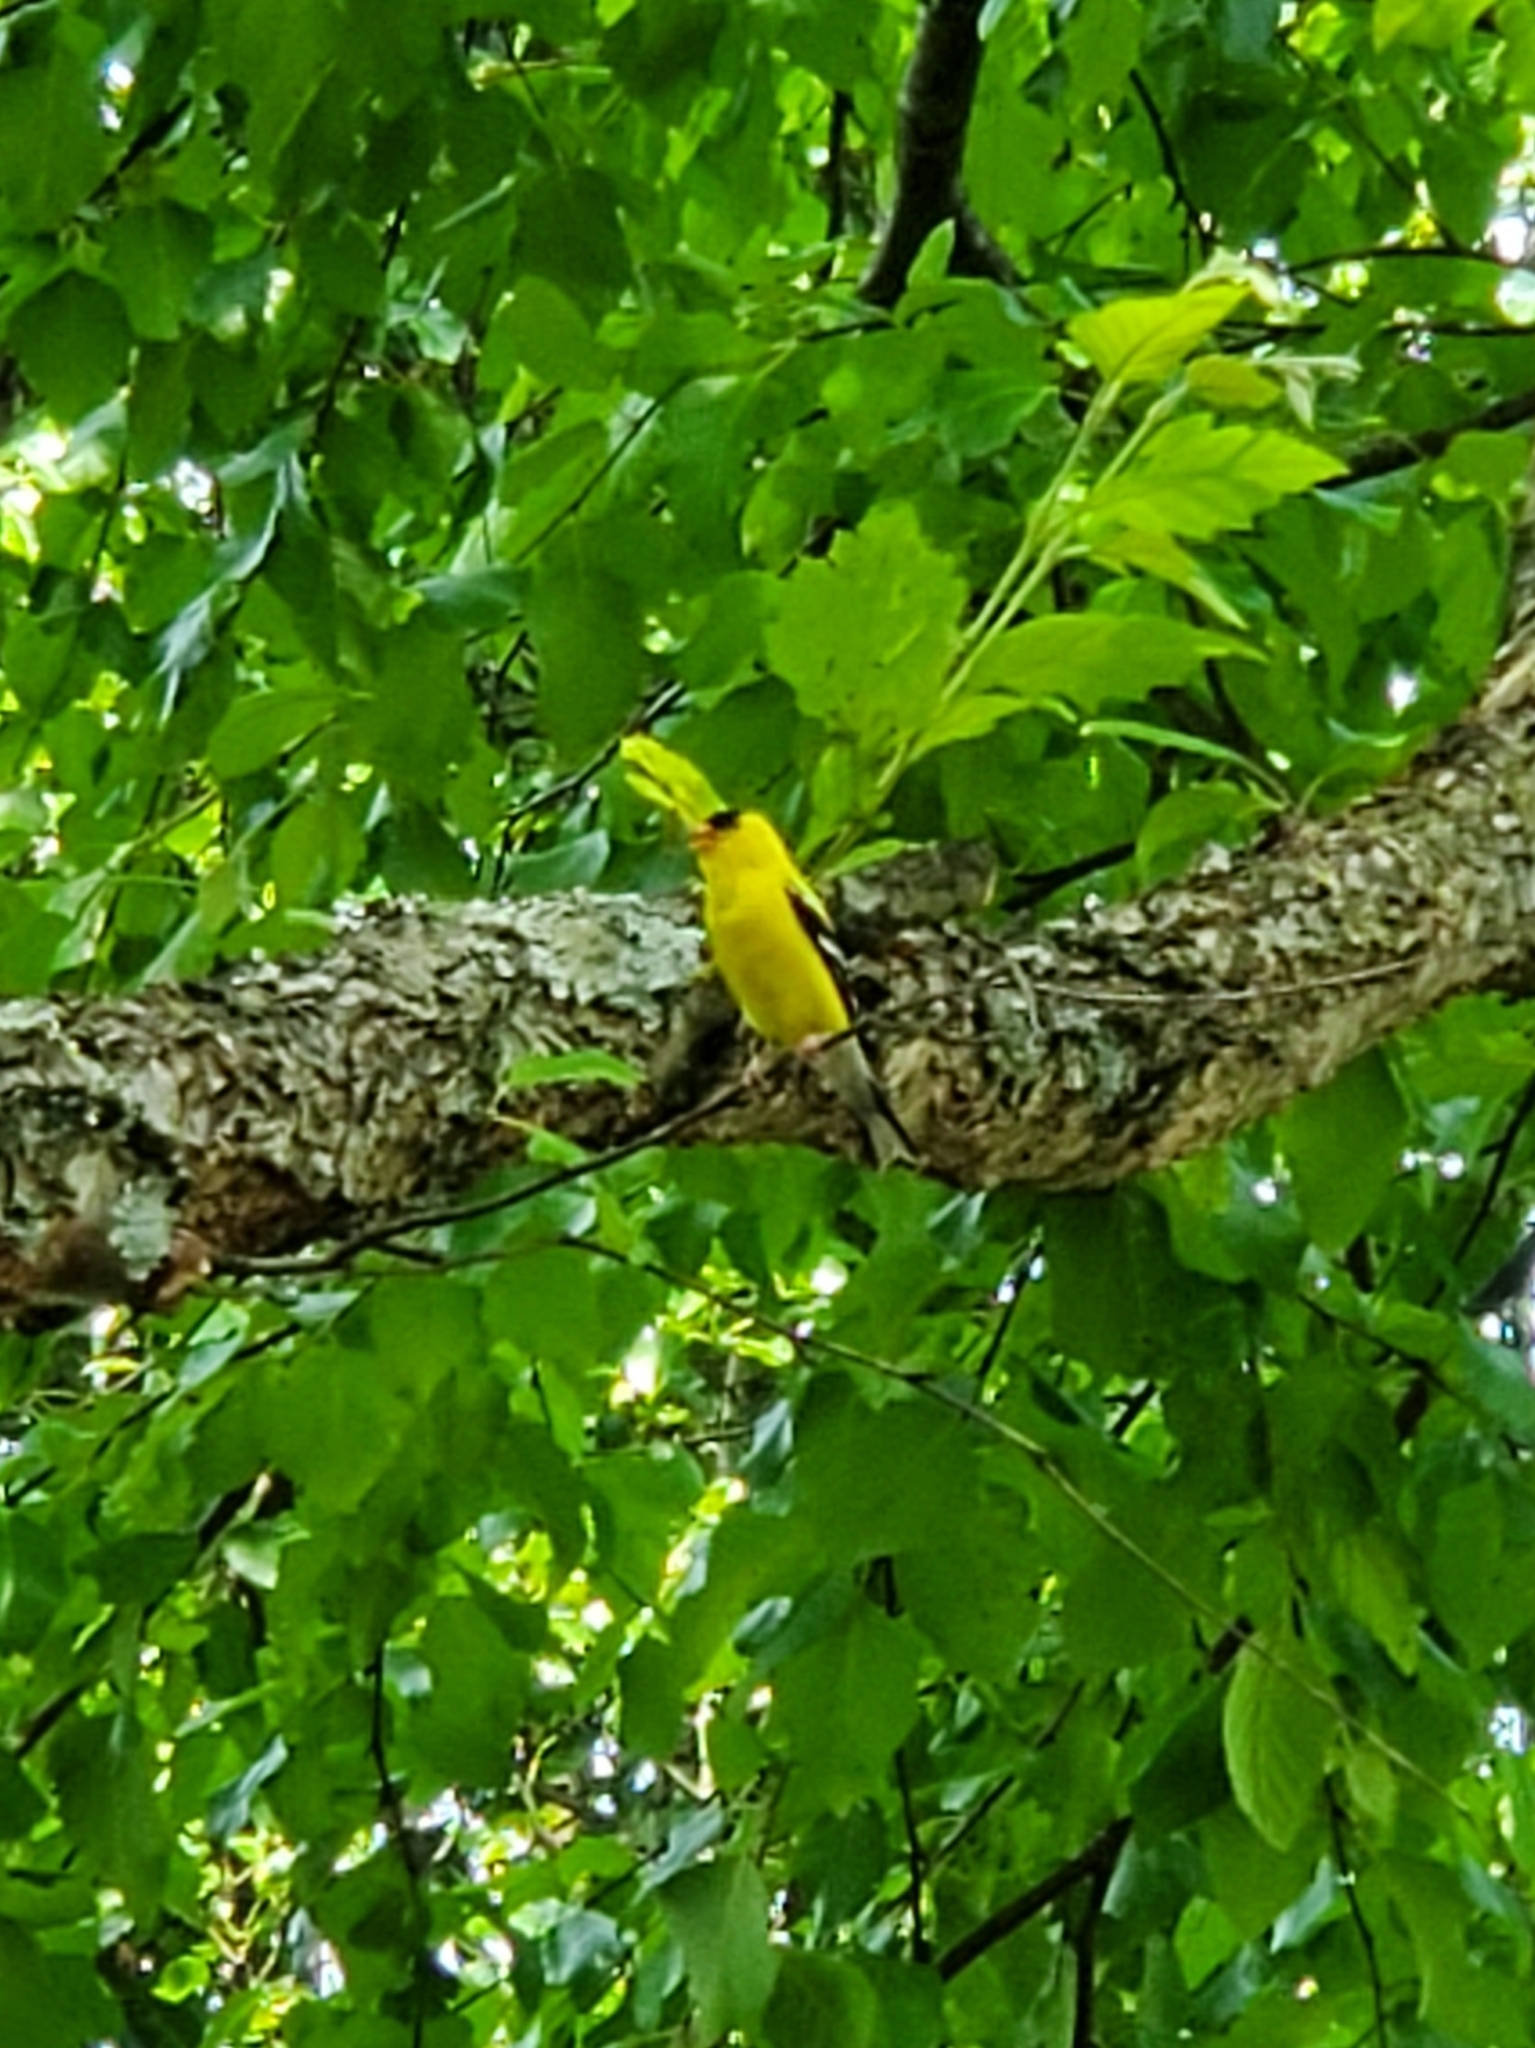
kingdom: Animalia
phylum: Chordata
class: Aves
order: Passeriformes
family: Fringillidae
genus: Spinus
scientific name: Spinus tristis
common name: American goldfinch
